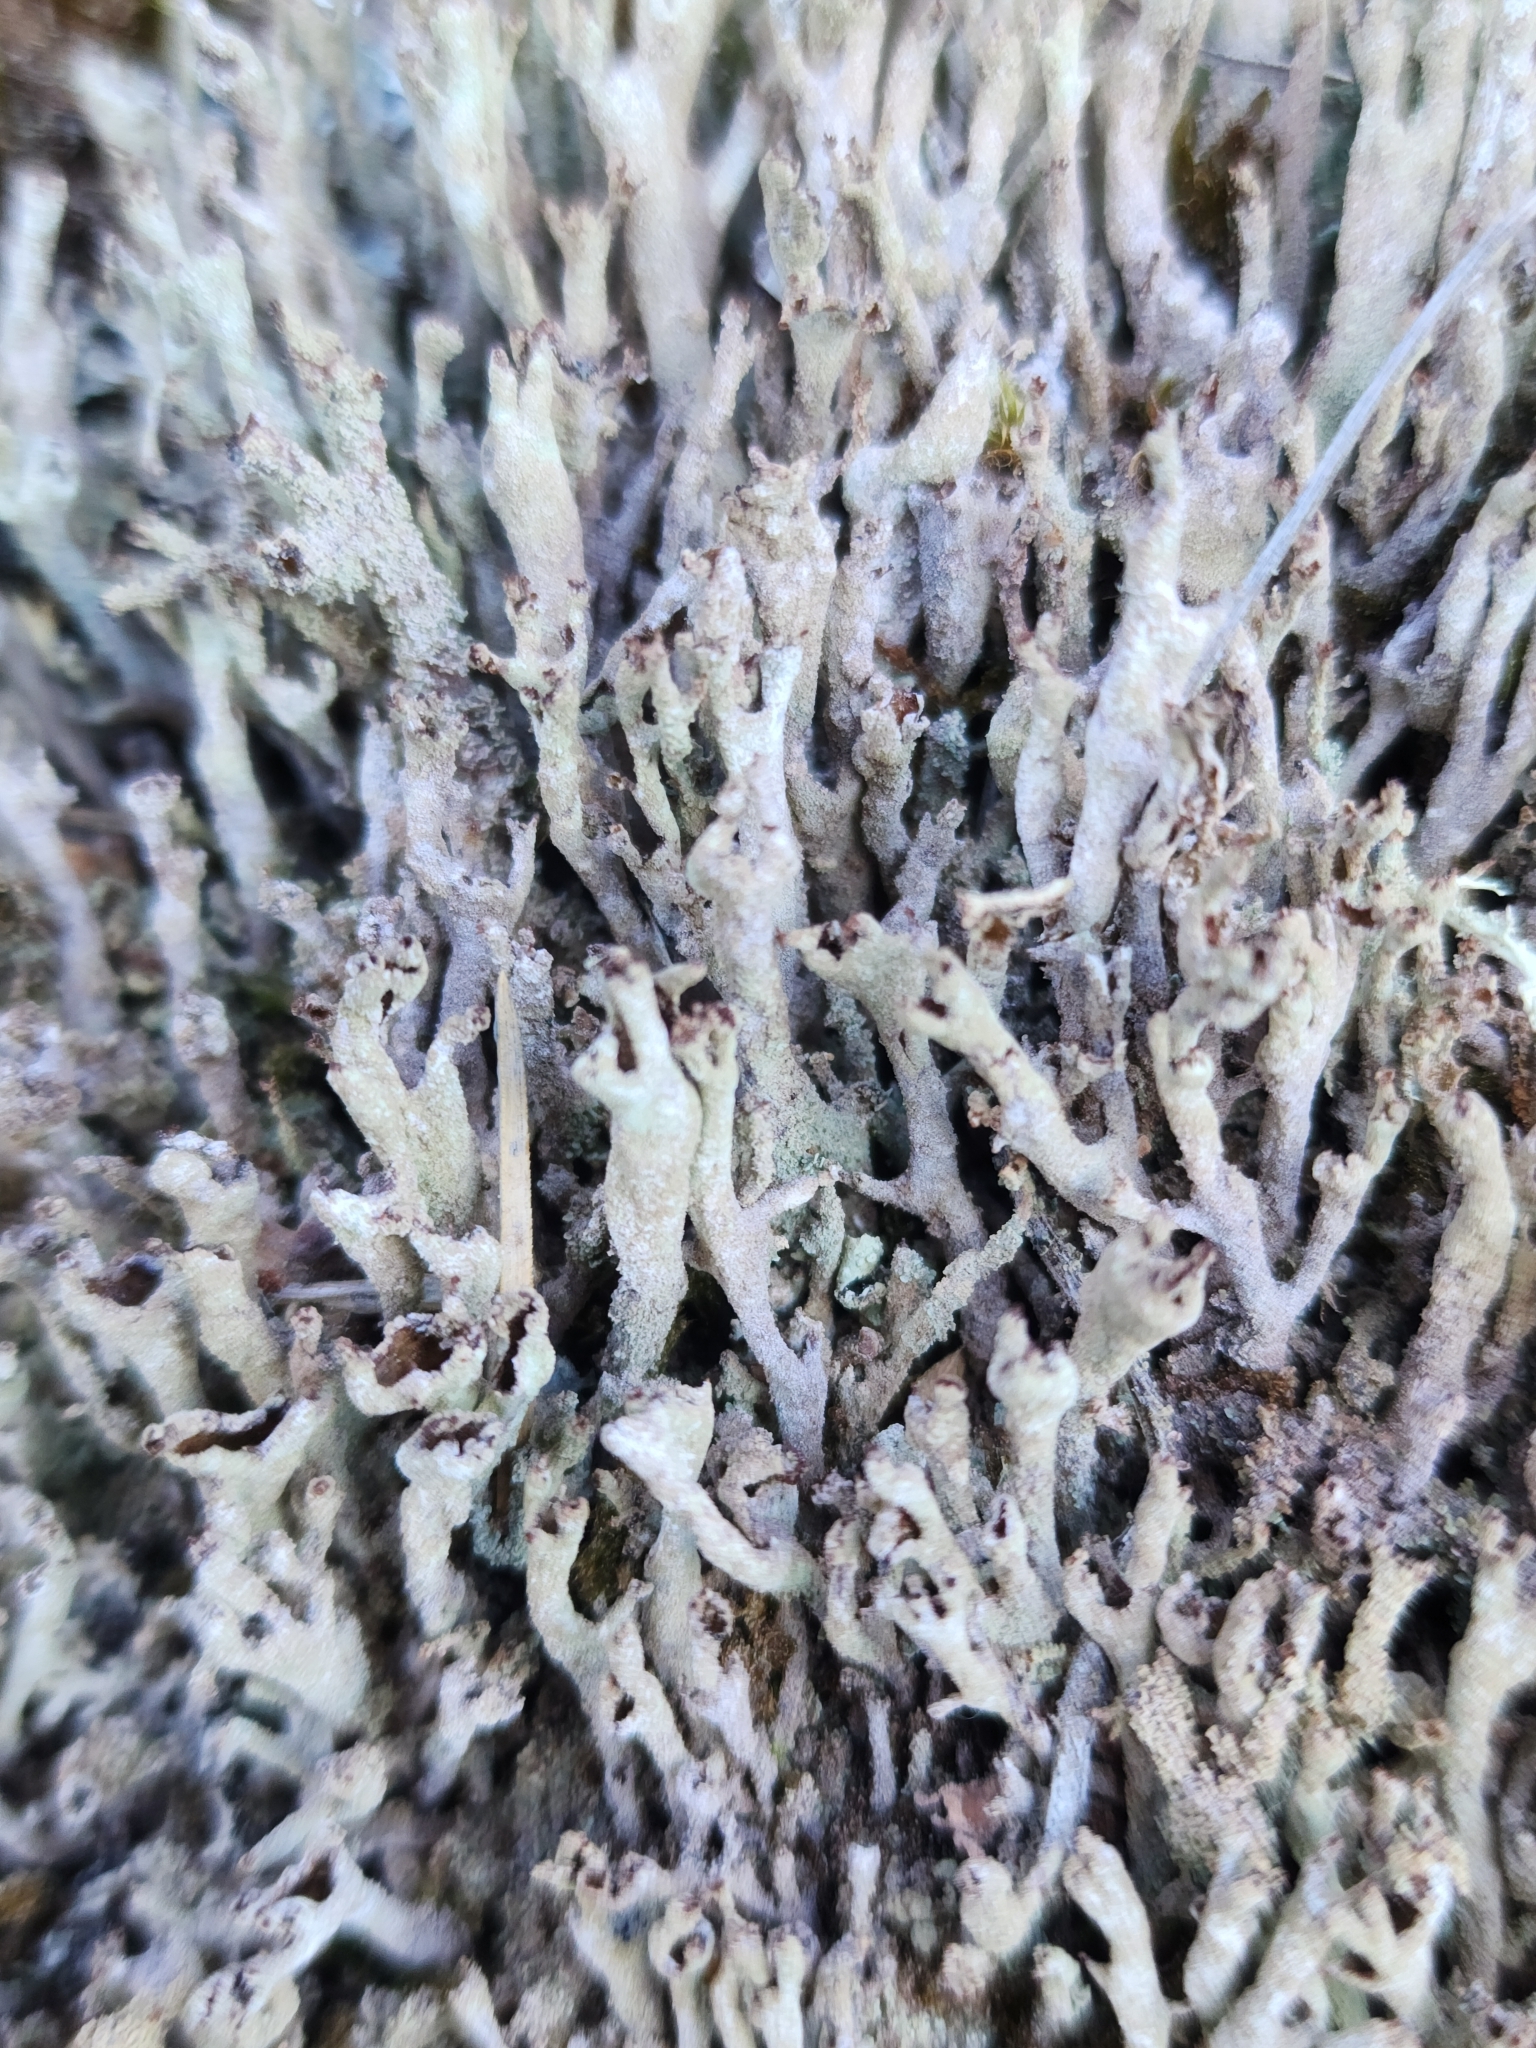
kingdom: Fungi
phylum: Ascomycota
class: Lecanoromycetes
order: Lecanorales
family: Cladoniaceae
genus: Cladonia
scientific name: Cladonia cenotea
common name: Powdered funnel lichen
